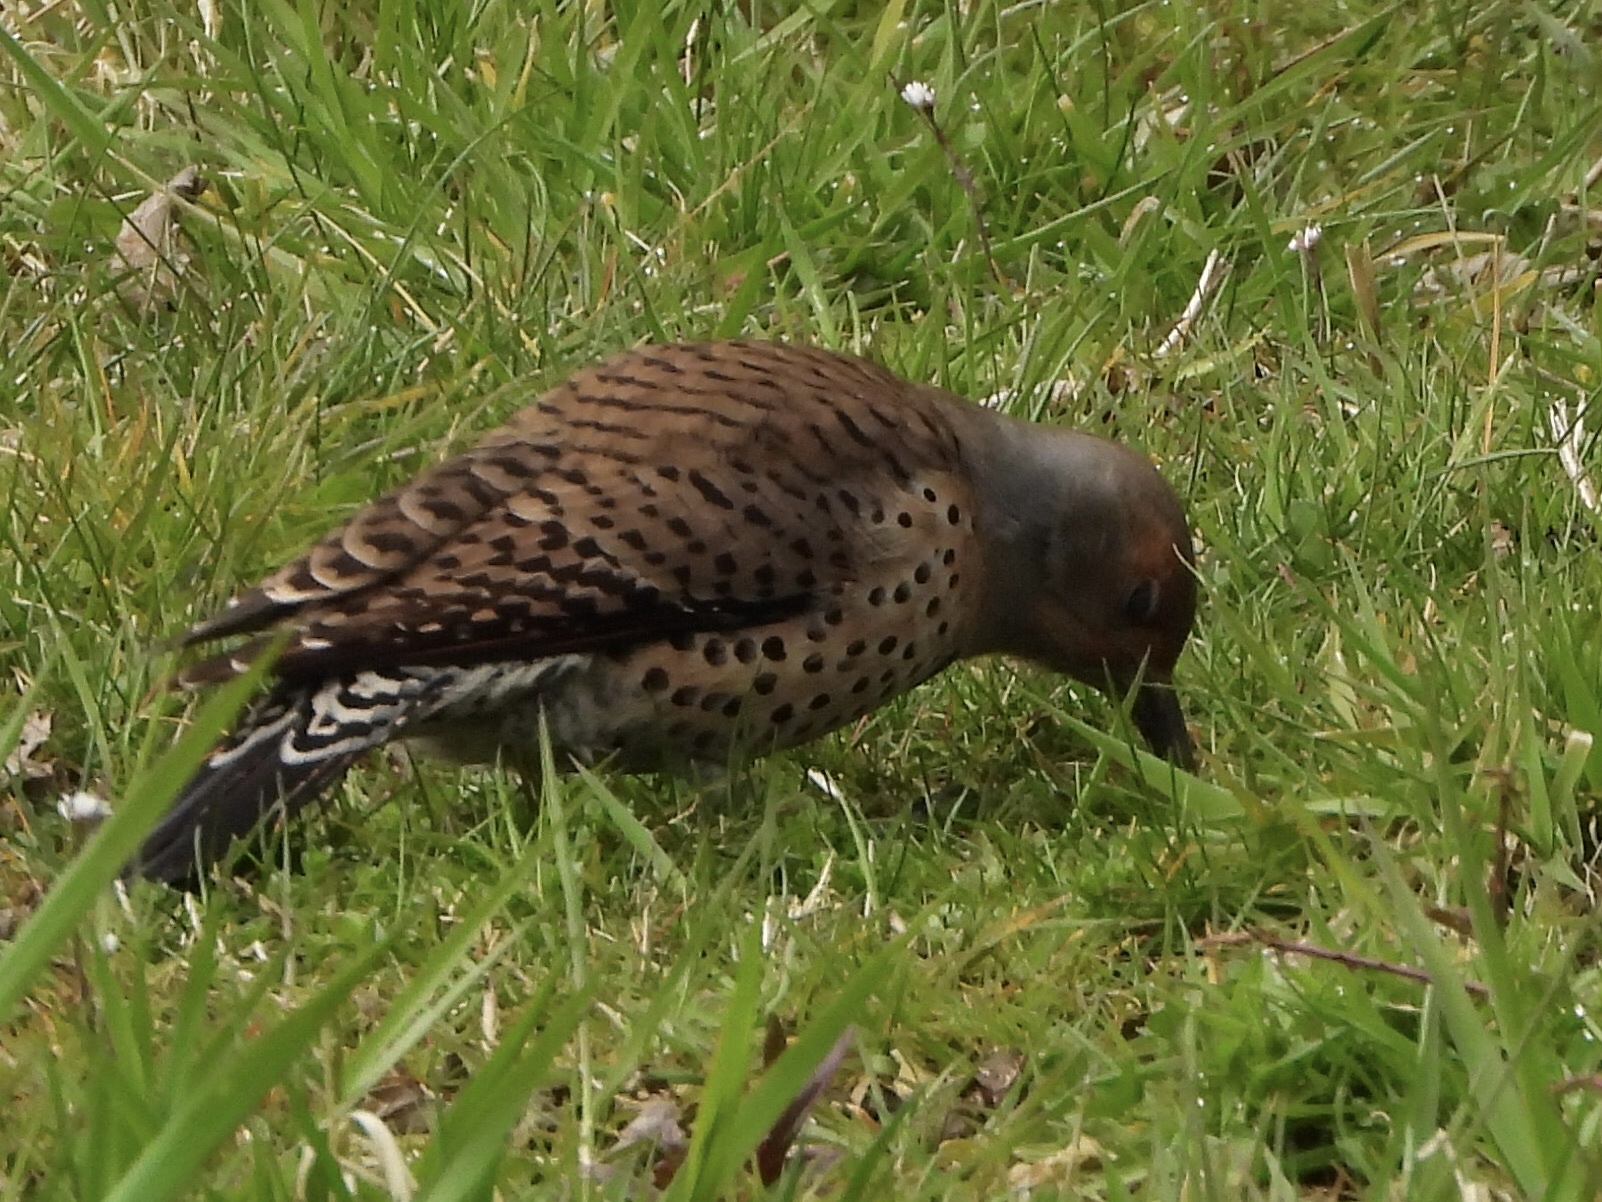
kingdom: Animalia
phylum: Chordata
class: Aves
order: Piciformes
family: Picidae
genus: Colaptes
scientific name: Colaptes auratus
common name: Northern flicker
